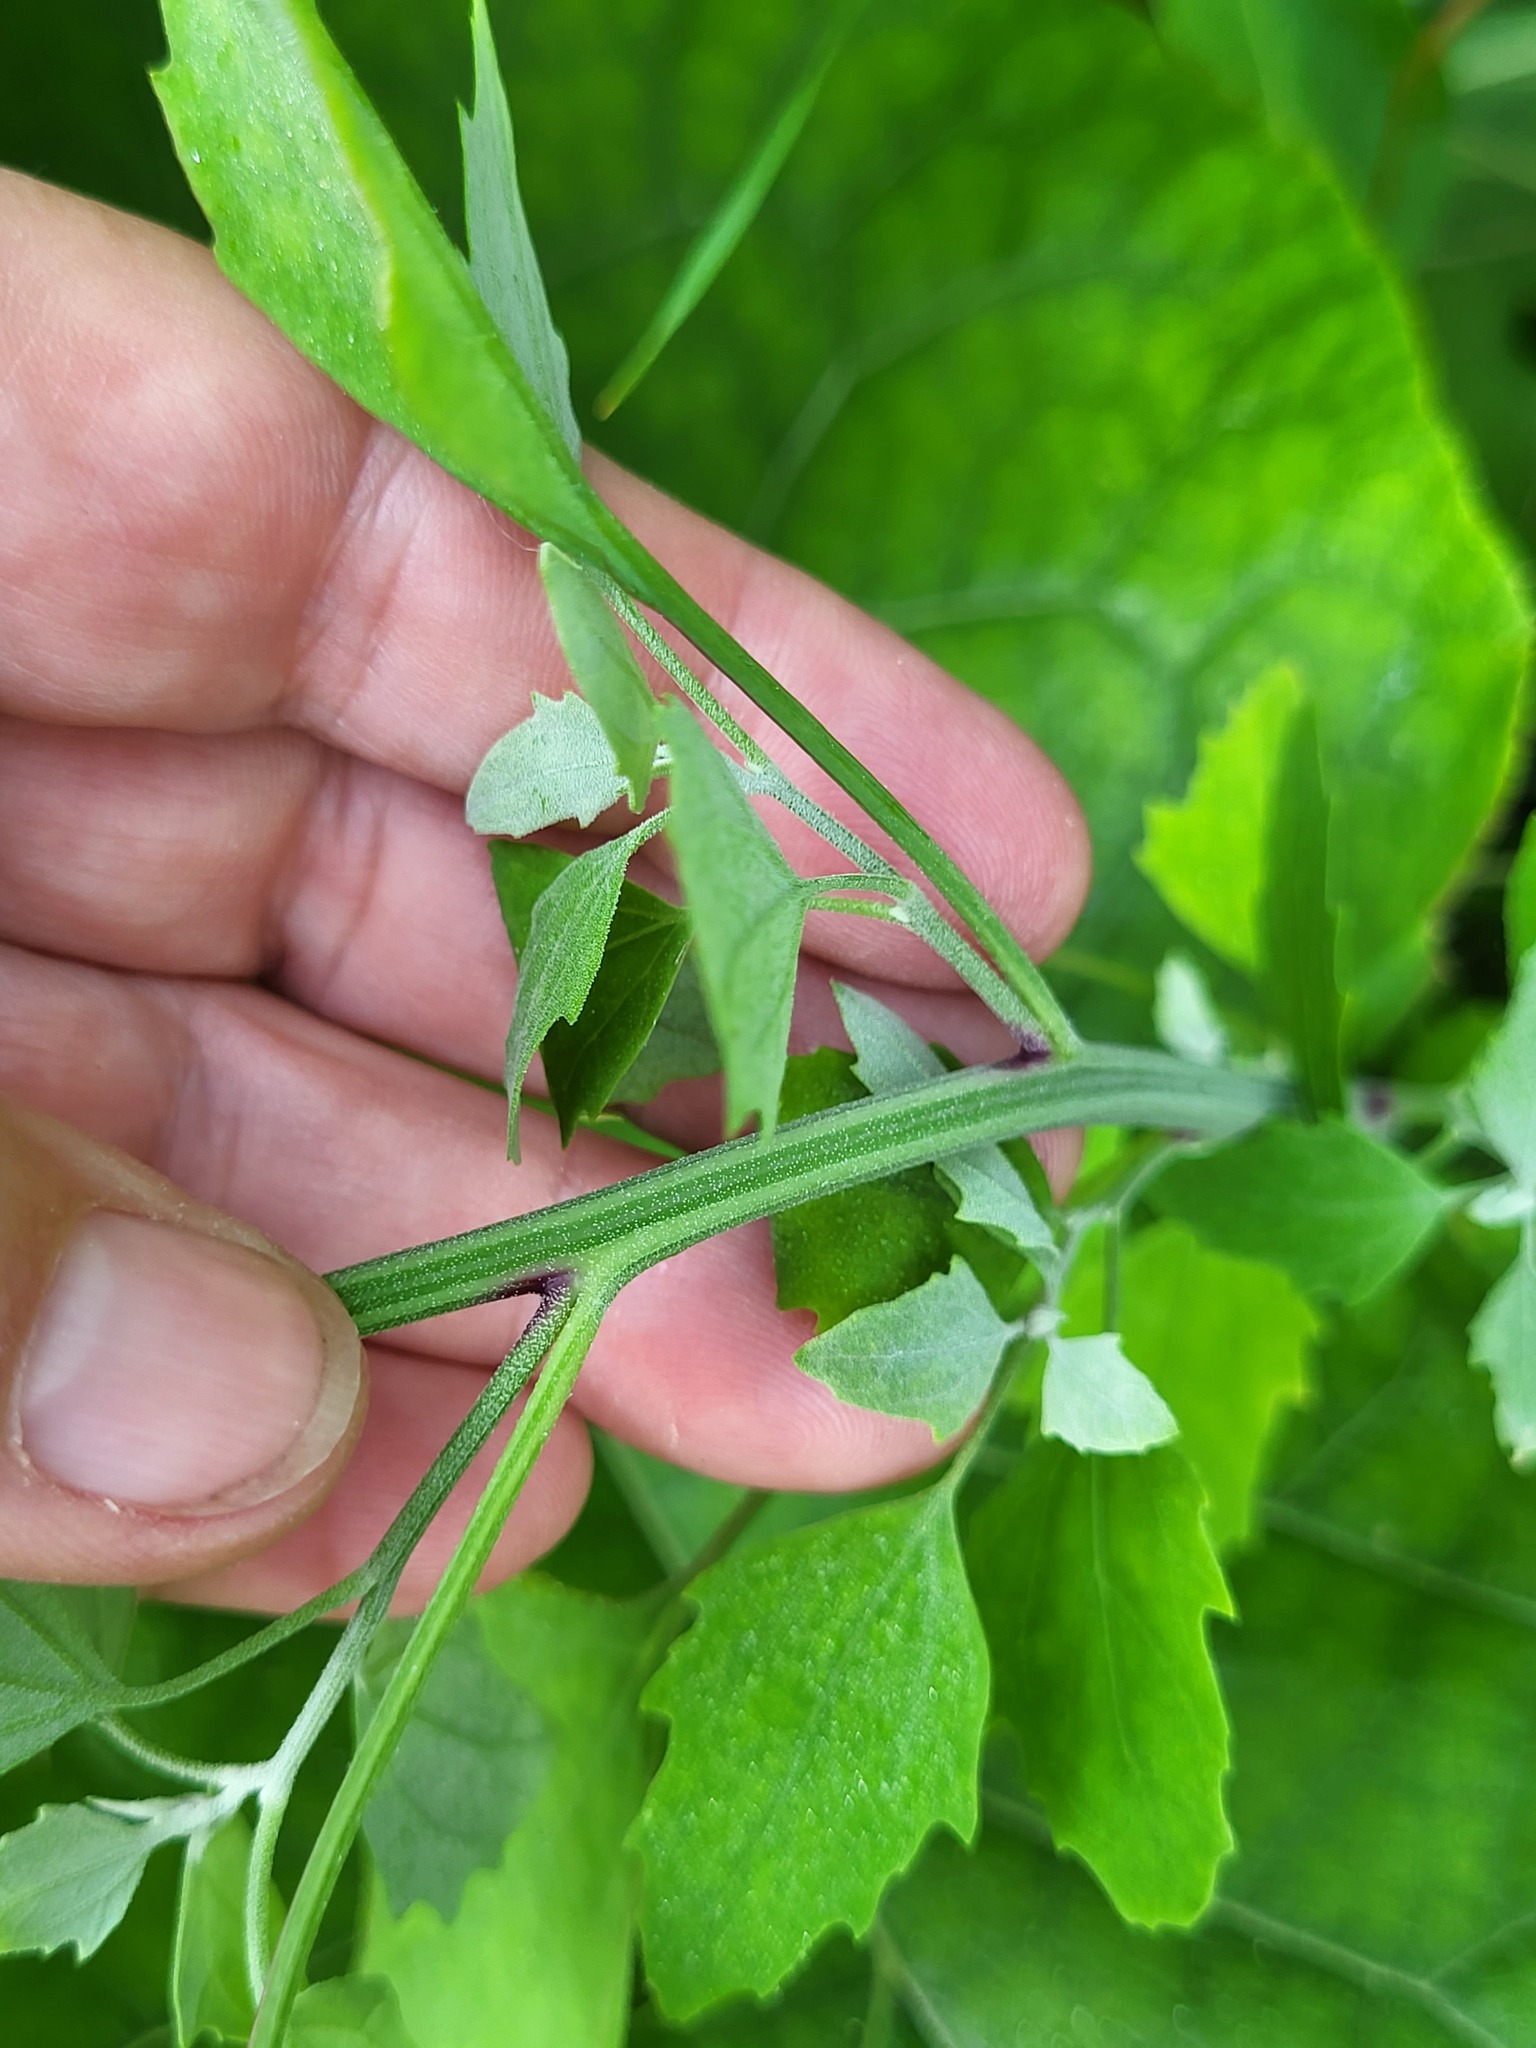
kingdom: Plantae
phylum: Tracheophyta
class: Magnoliopsida
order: Caryophyllales
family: Amaranthaceae
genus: Chenopodium
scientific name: Chenopodium album
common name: Fat-hen
